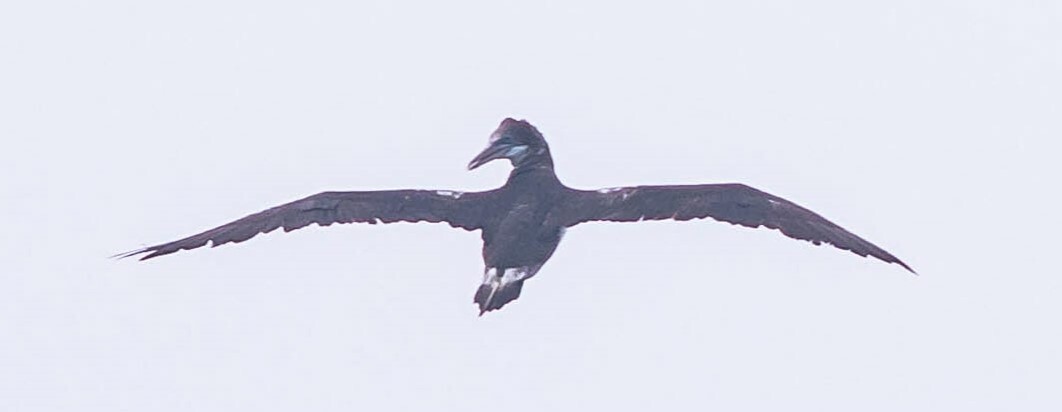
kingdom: Animalia
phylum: Chordata
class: Aves
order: Suliformes
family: Sulidae
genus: Morus
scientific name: Morus bassanus
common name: Northern gannet
